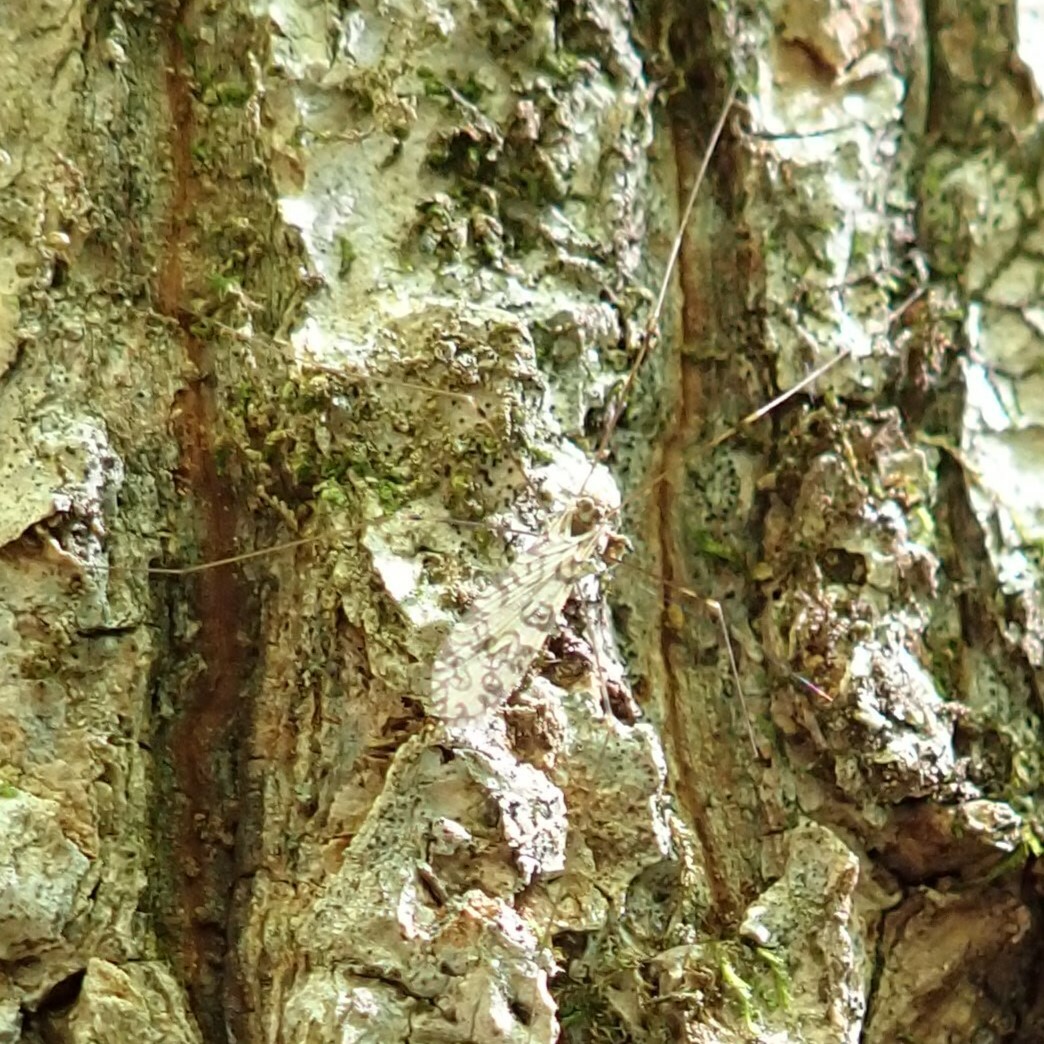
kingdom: Animalia
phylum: Arthropoda
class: Insecta
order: Diptera
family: Limoniidae
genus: Limonia
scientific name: Limonia annulata
